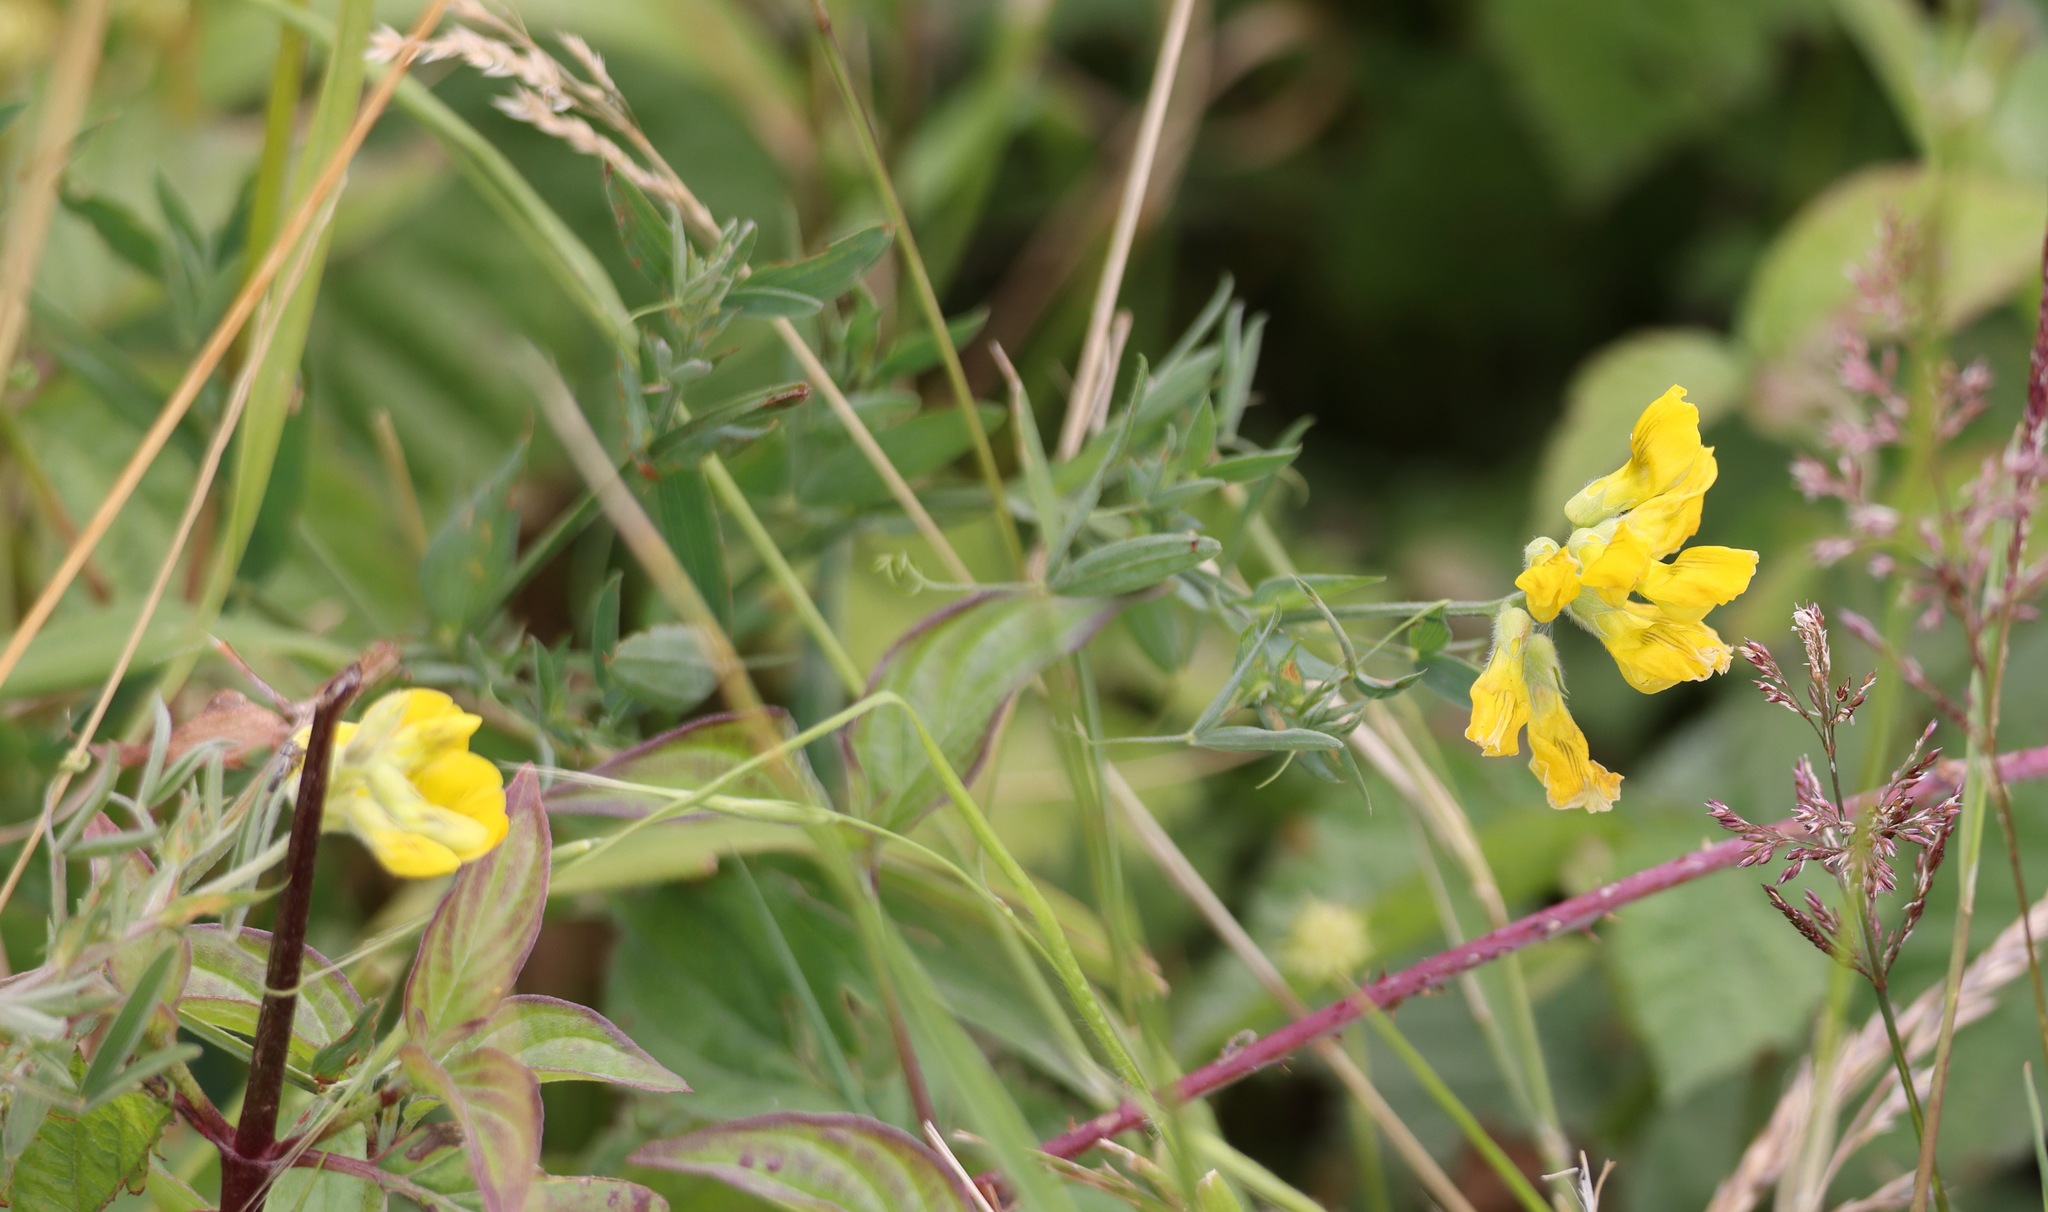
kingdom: Plantae
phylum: Tracheophyta
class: Magnoliopsida
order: Fabales
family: Fabaceae
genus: Lathyrus
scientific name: Lathyrus pratensis
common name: Meadow vetchling
